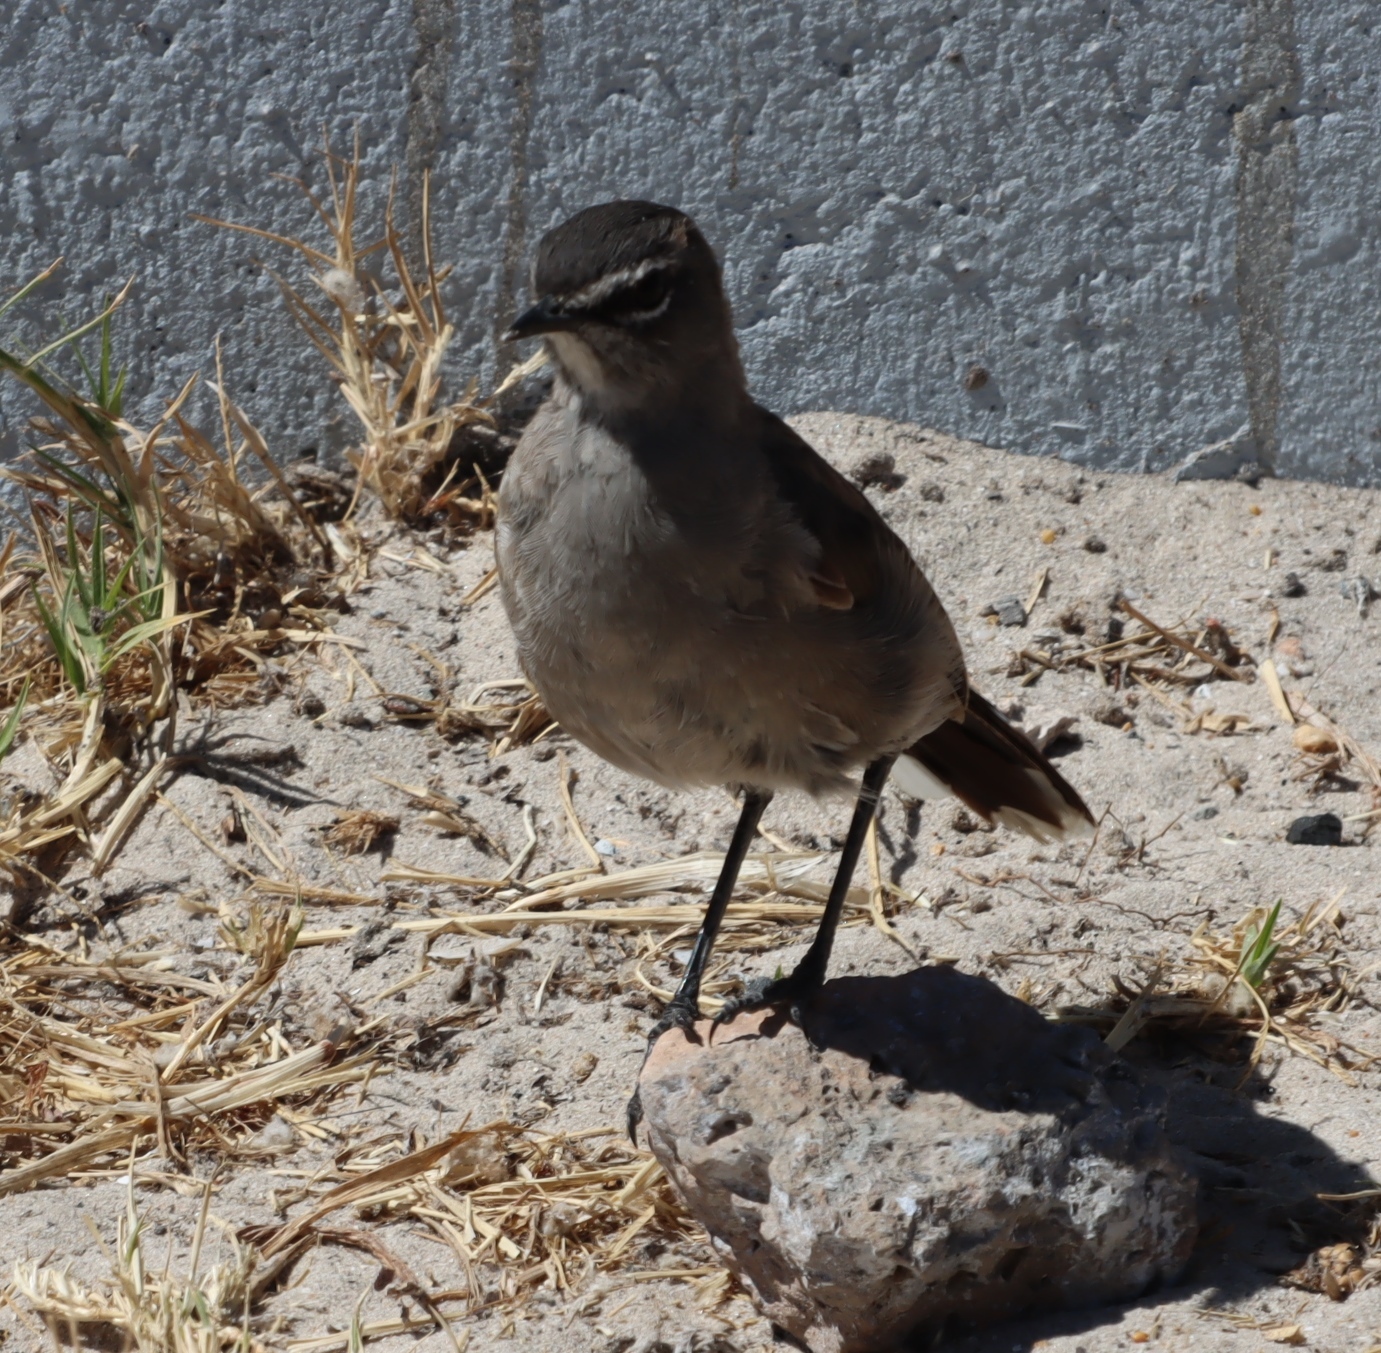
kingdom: Animalia
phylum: Chordata
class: Aves
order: Passeriformes
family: Muscicapidae
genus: Erythropygia
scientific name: Erythropygia coryphoeus
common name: Karoo scrub robin
